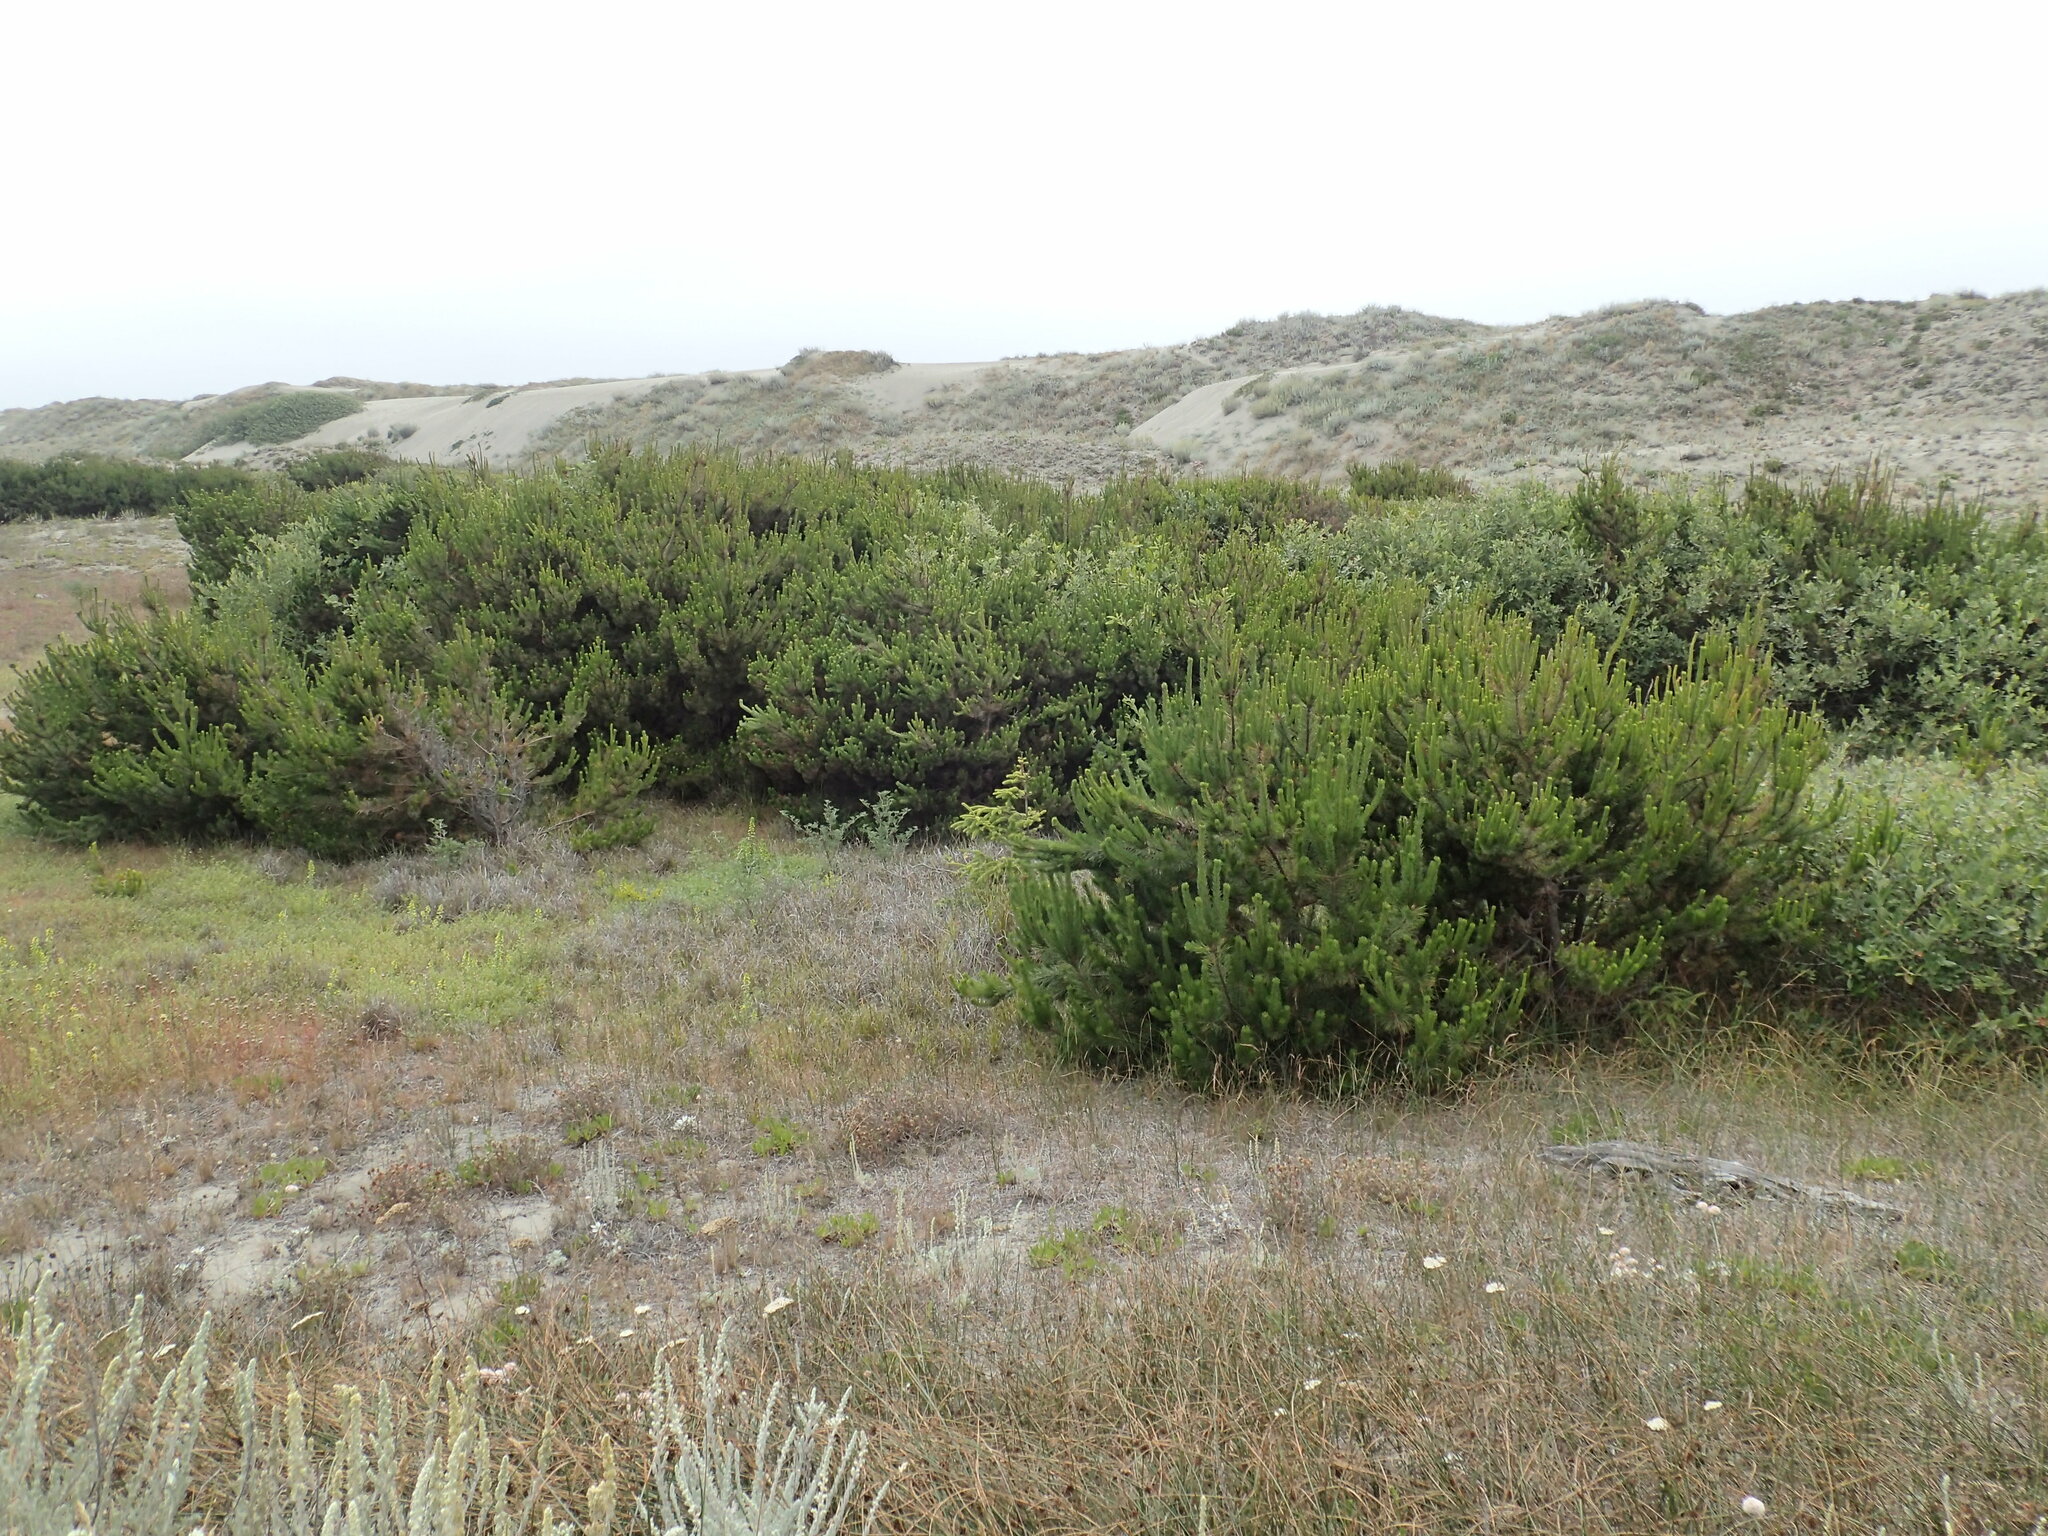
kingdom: Plantae
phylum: Tracheophyta
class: Pinopsida
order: Pinales
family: Pinaceae
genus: Pinus
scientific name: Pinus contorta
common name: Lodgepole pine
